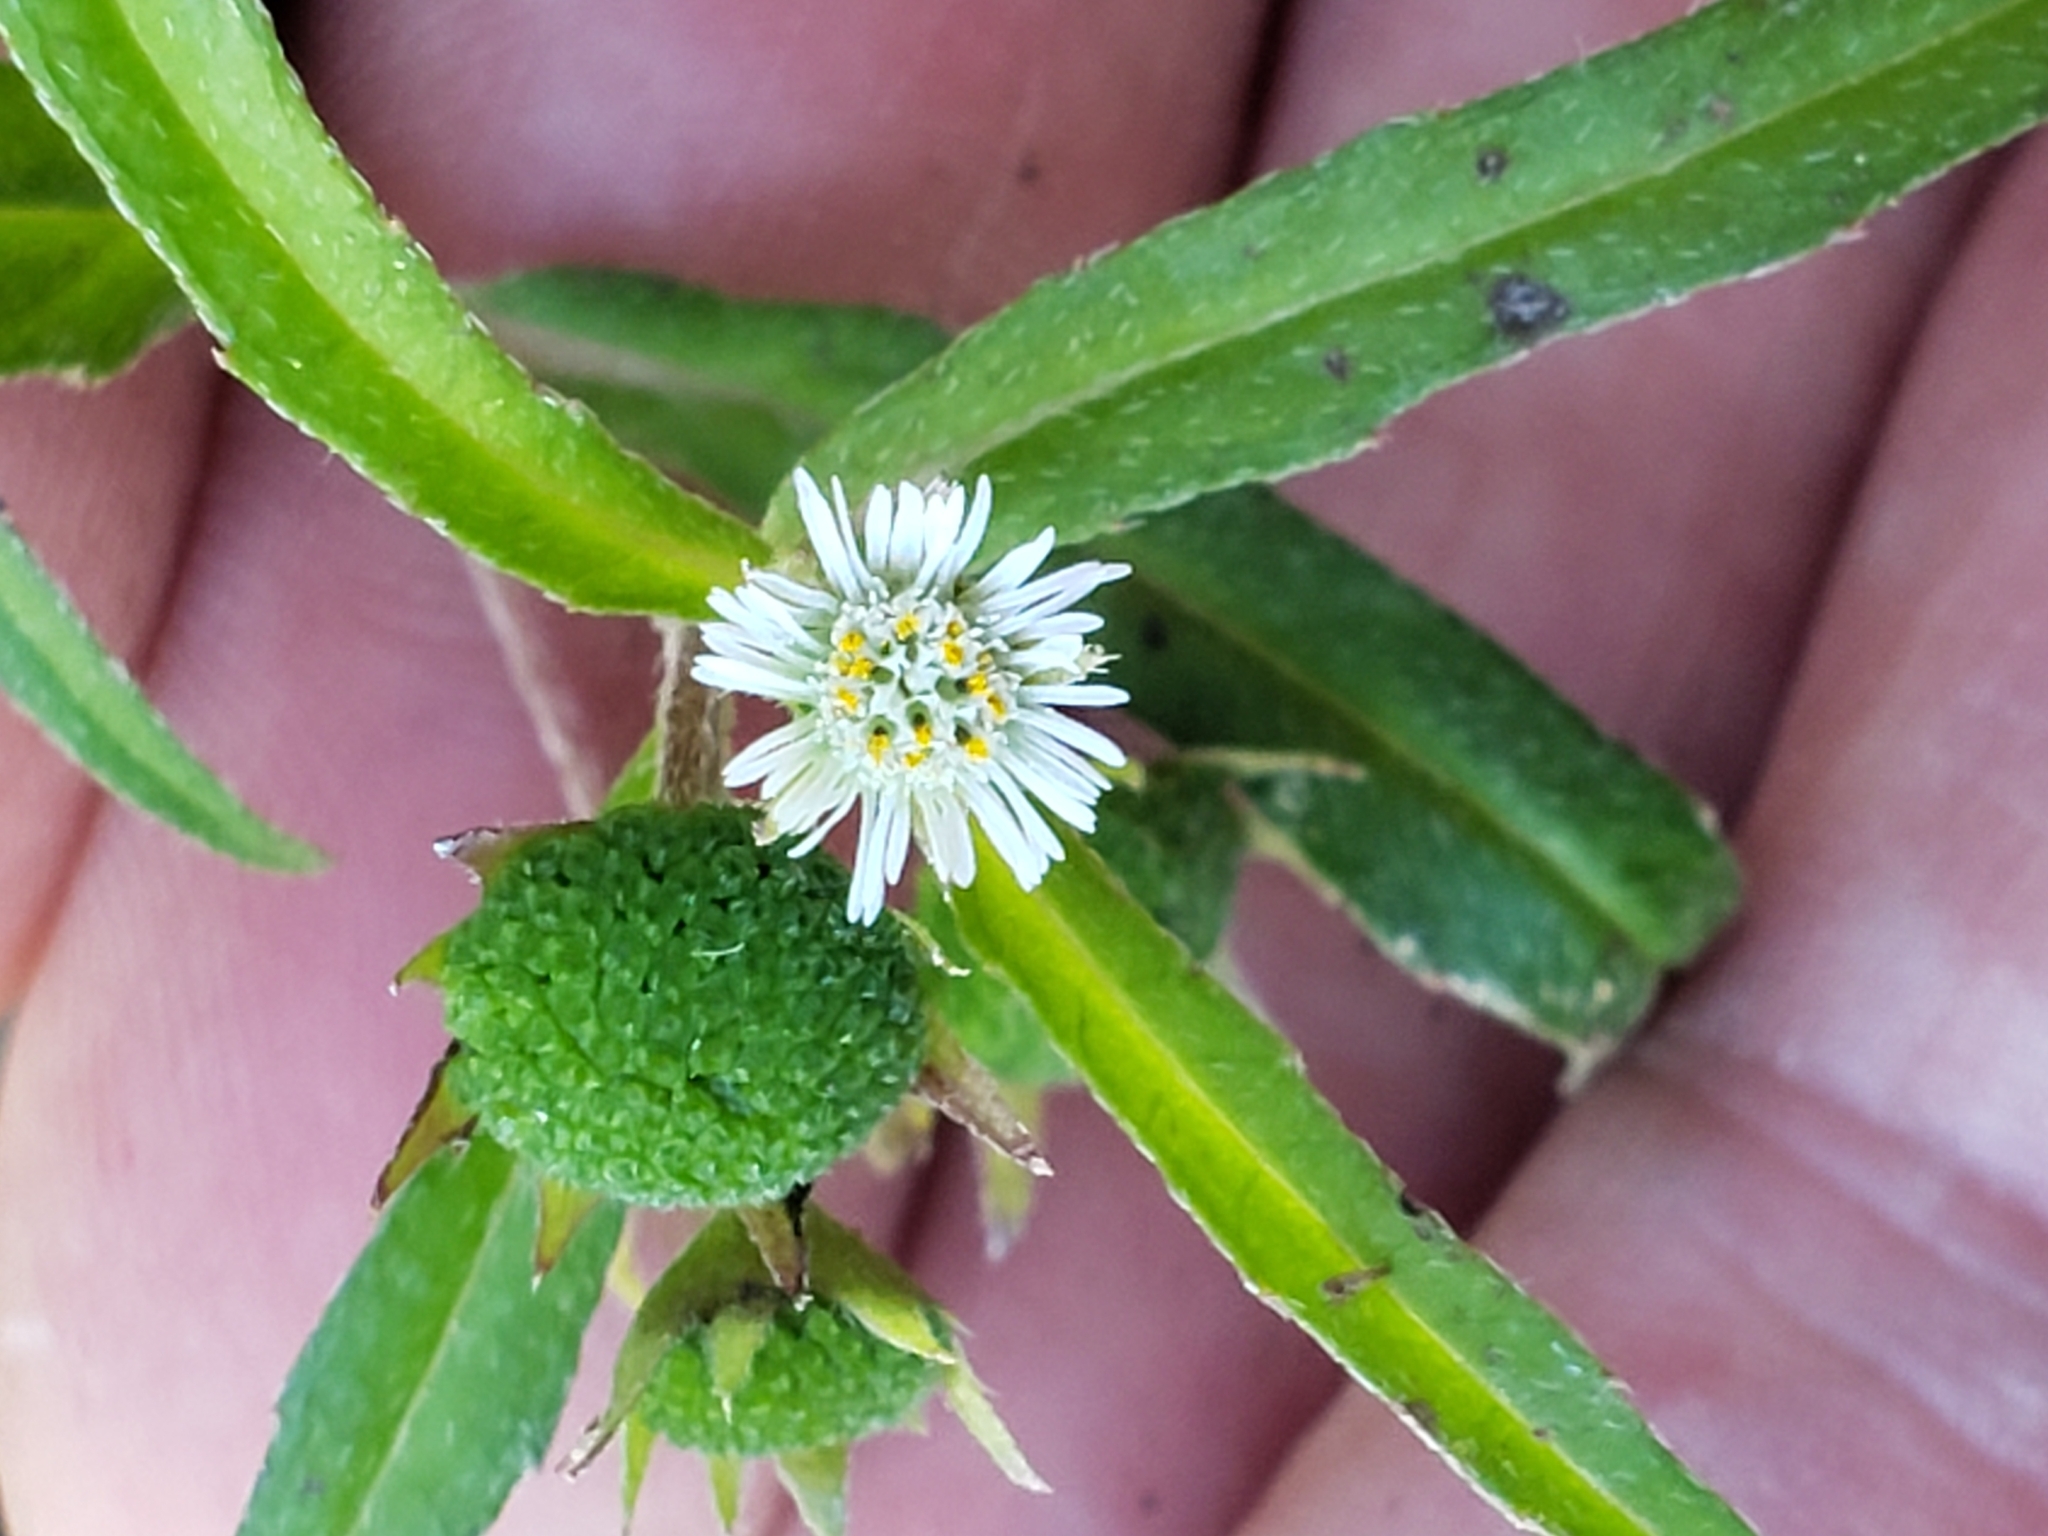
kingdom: Plantae
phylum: Tracheophyta
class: Magnoliopsida
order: Asterales
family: Asteraceae
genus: Eclipta
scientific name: Eclipta prostrata
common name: False daisy
